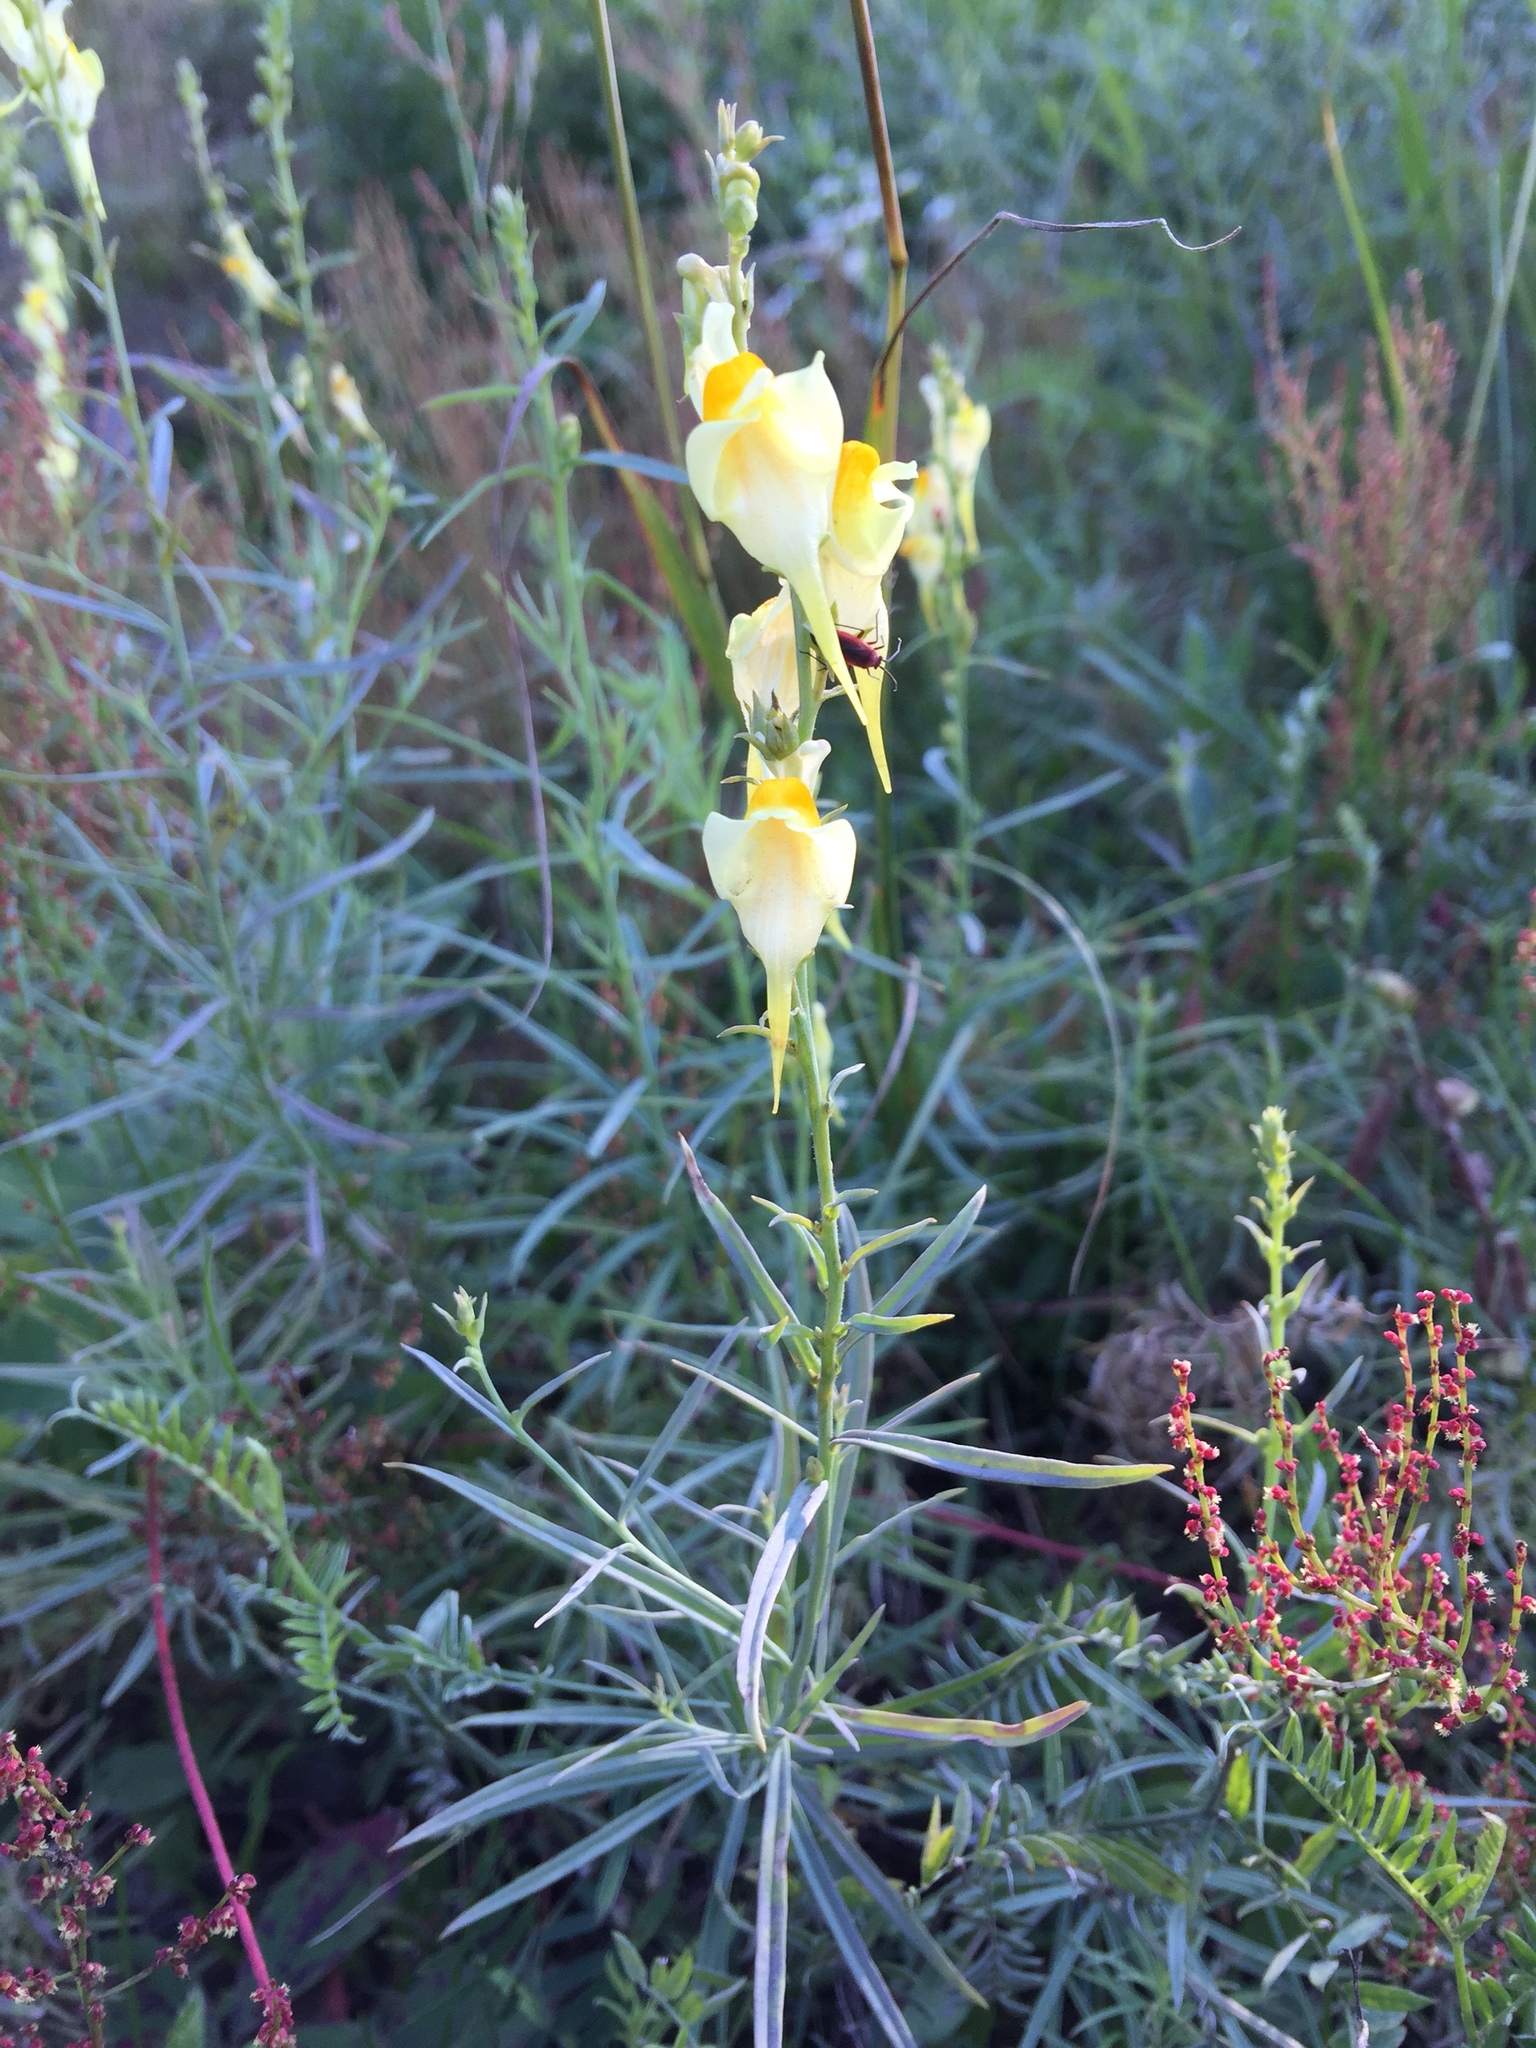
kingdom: Plantae
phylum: Tracheophyta
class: Magnoliopsida
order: Lamiales
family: Plantaginaceae
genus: Linaria
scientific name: Linaria vulgaris
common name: Butter and eggs
